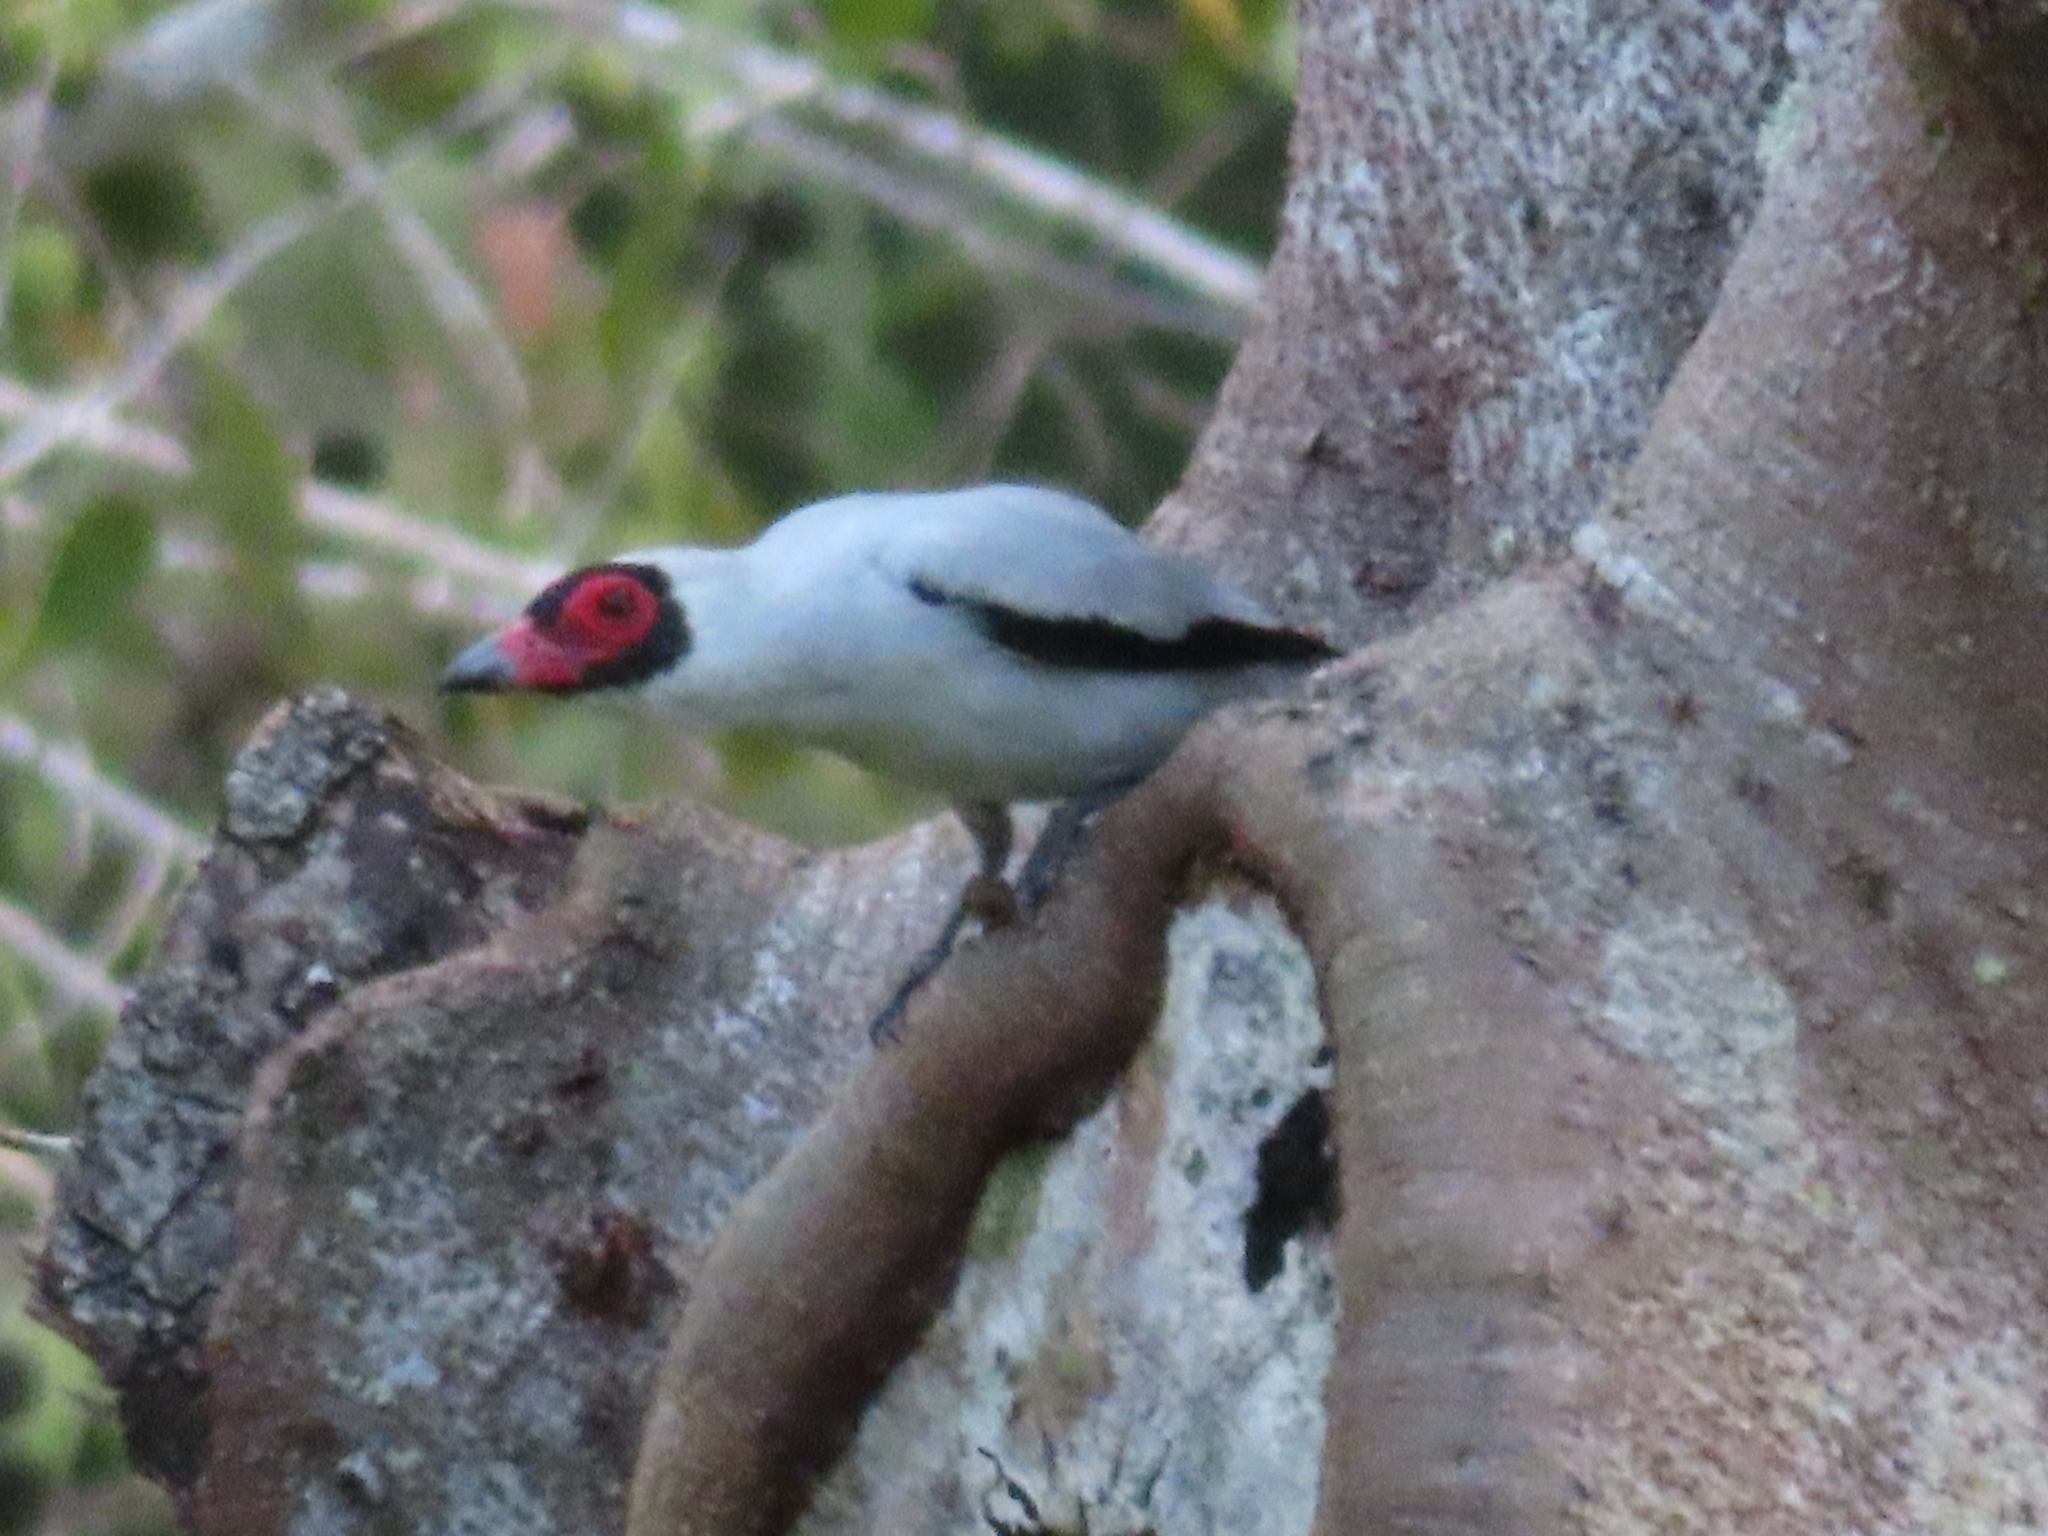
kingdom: Animalia
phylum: Chordata
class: Aves
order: Passeriformes
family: Cotingidae
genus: Tityra
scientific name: Tityra semifasciata
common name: Masked tityra
